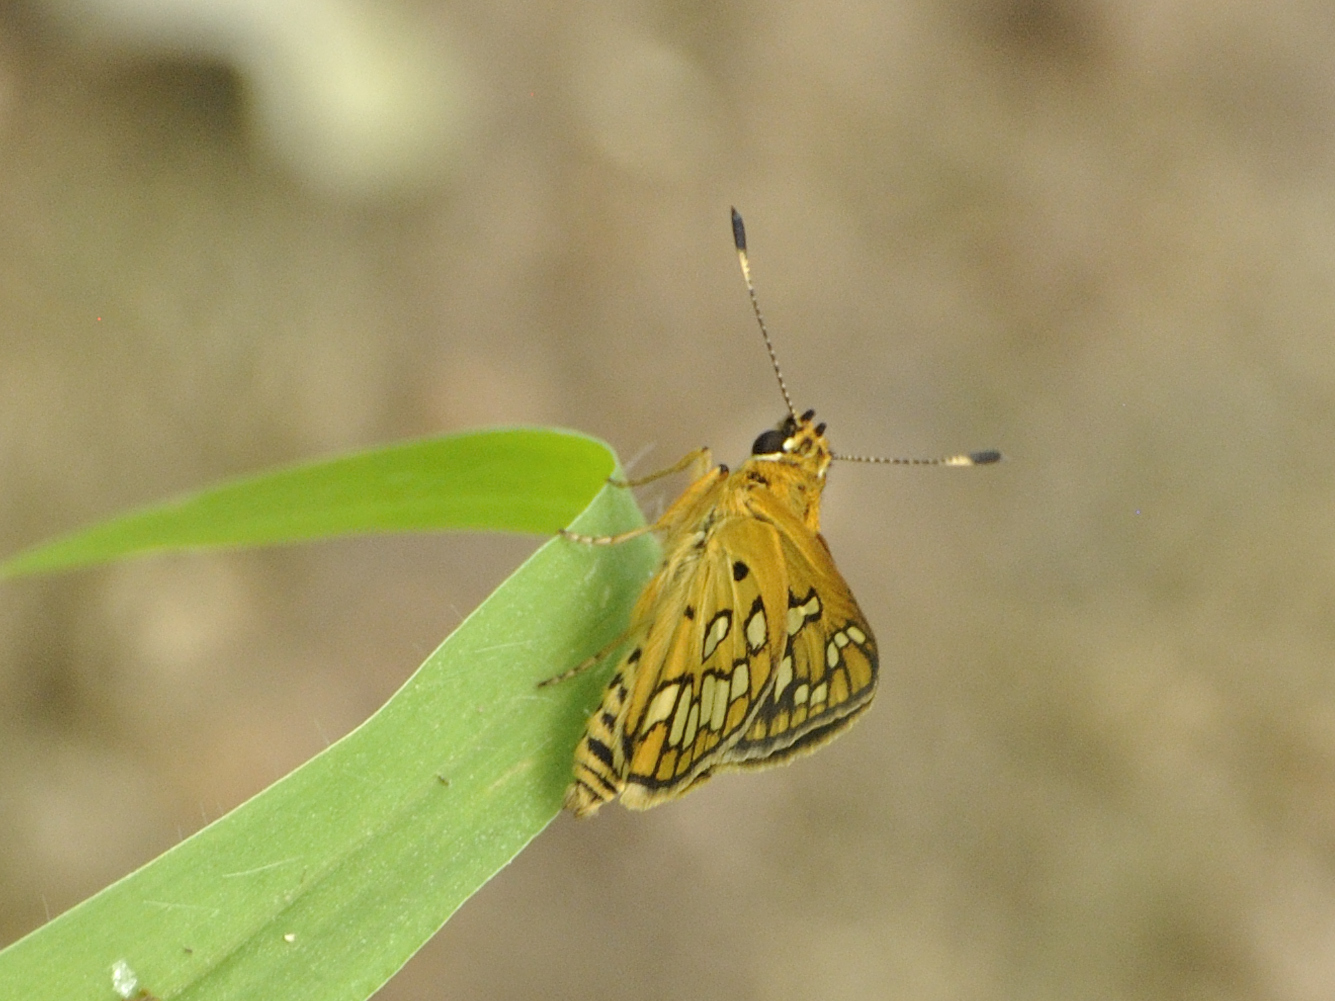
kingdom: Animalia
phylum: Arthropoda
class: Insecta
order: Lepidoptera
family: Hesperiidae
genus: Dotta
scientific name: Dotta
